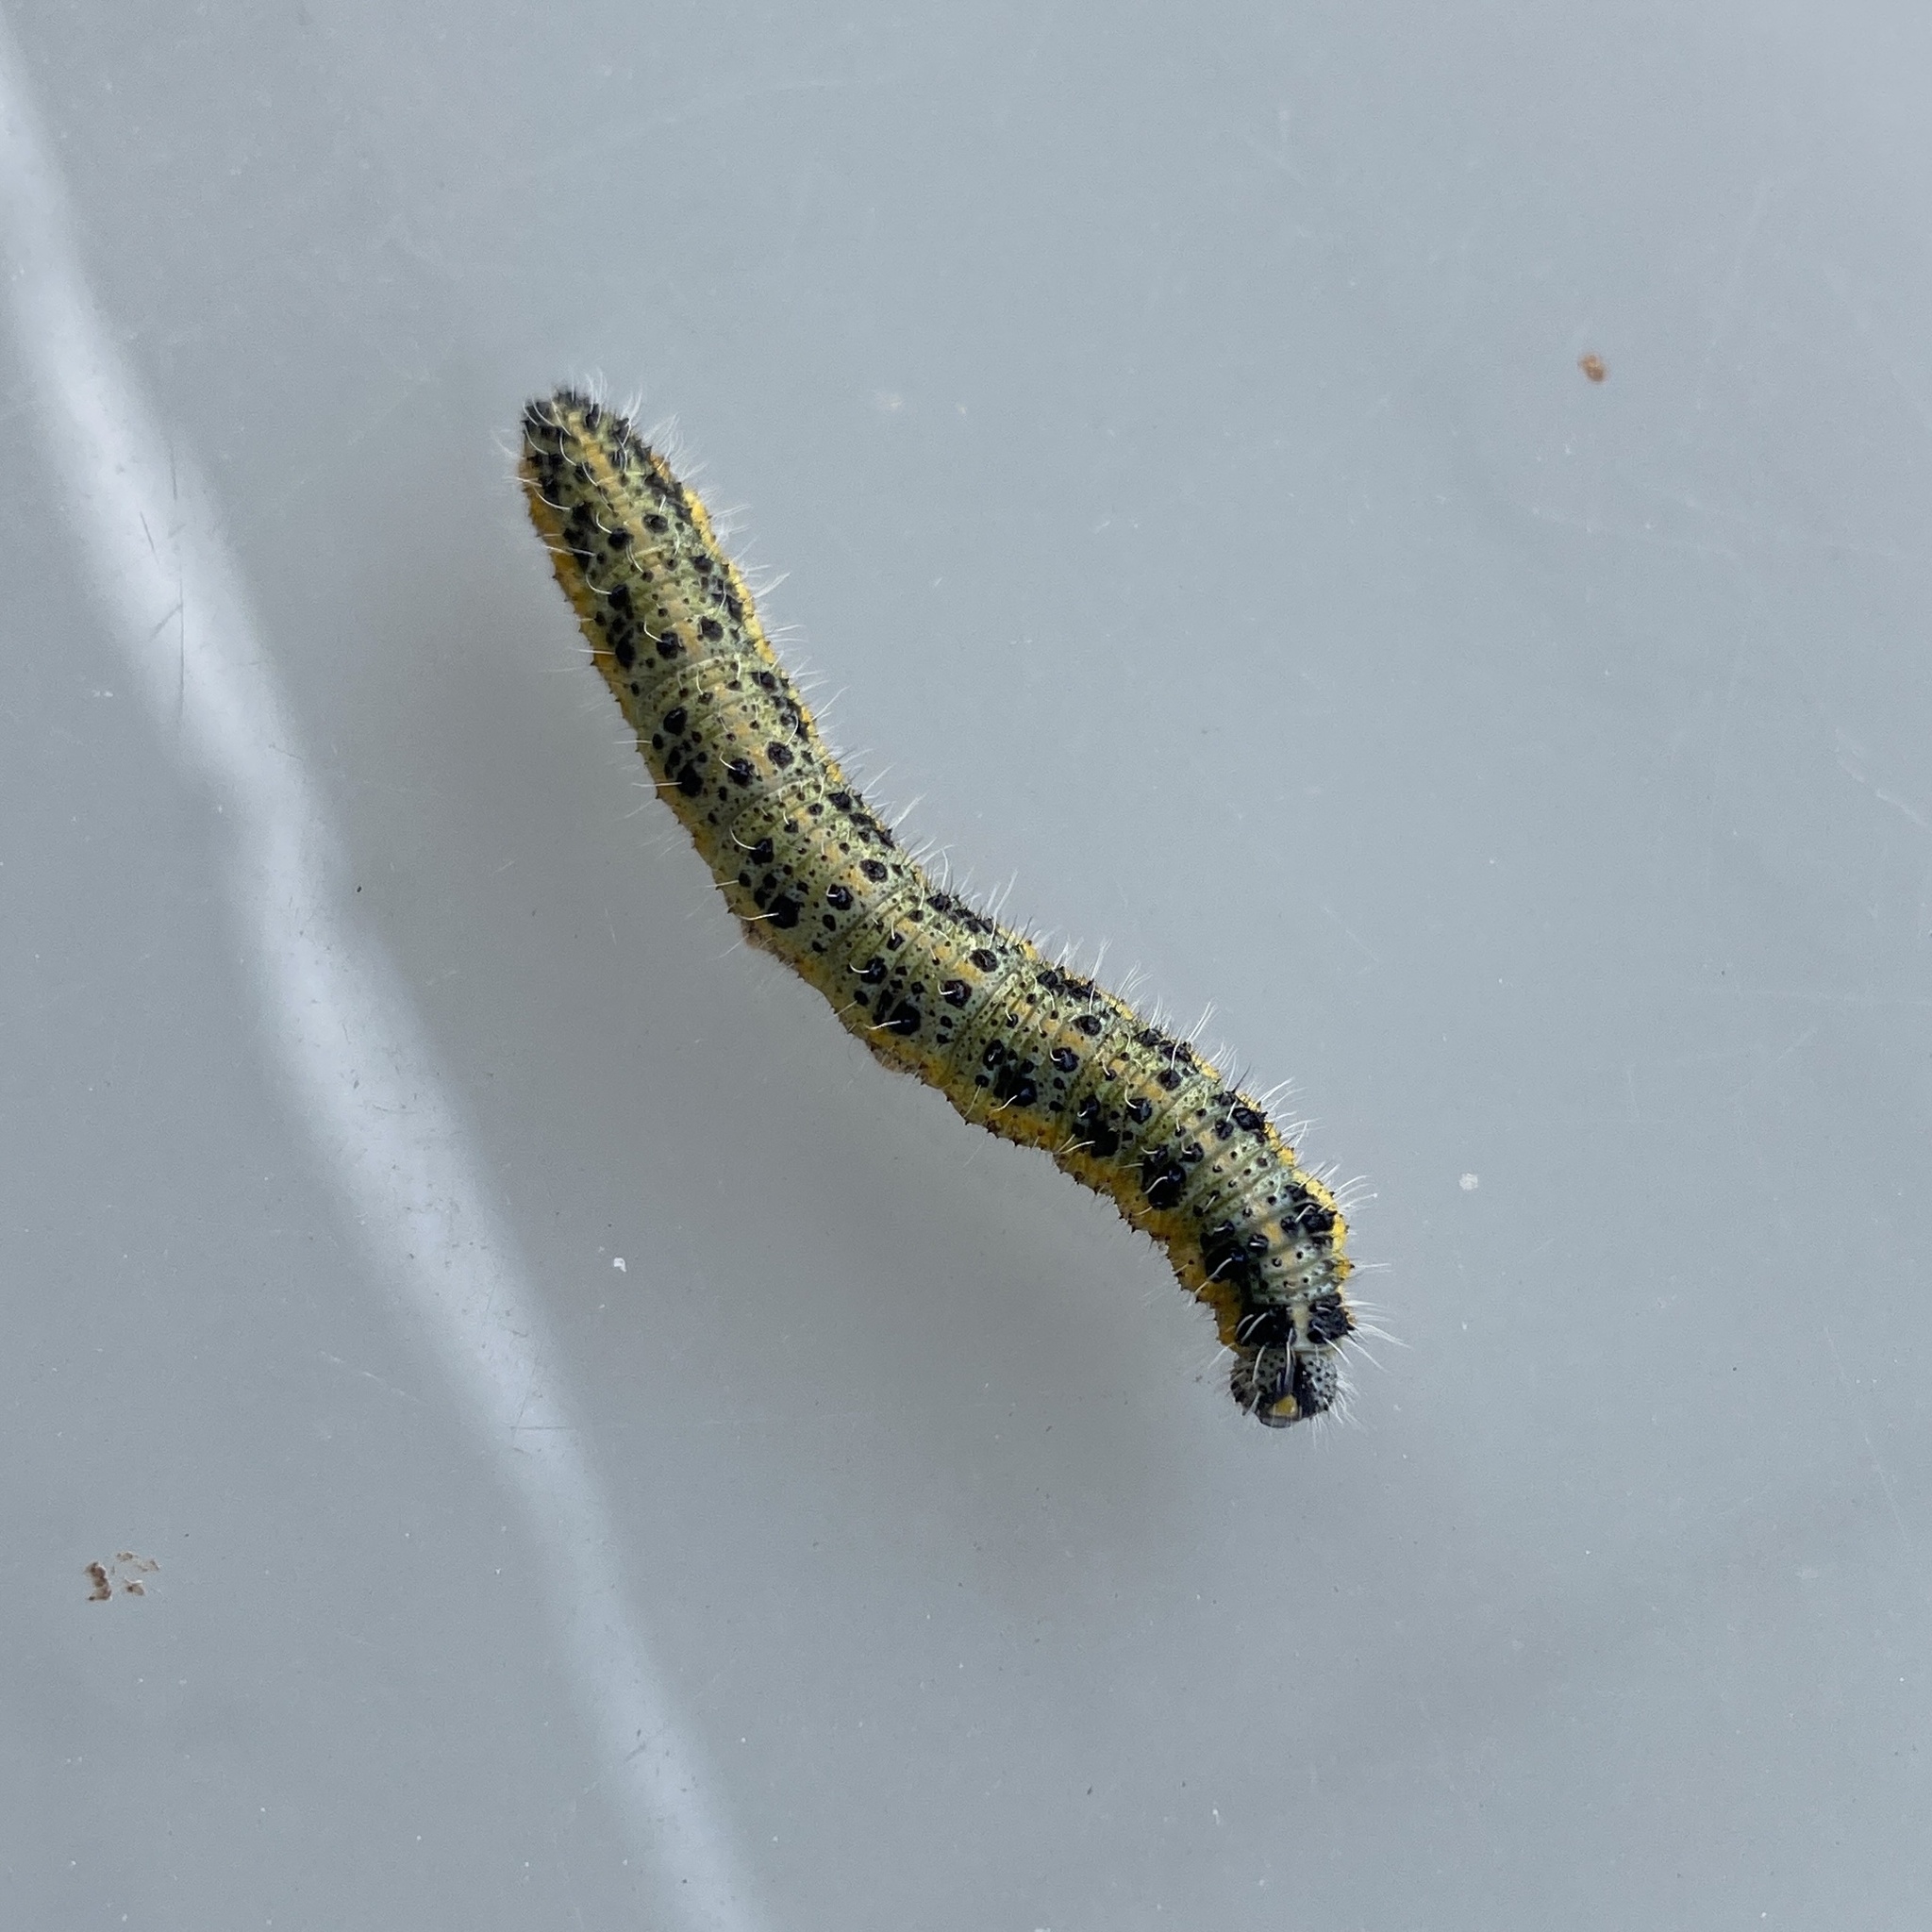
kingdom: Animalia
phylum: Arthropoda
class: Insecta
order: Lepidoptera
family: Pieridae
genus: Pieris
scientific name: Pieris brassicae
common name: Large white
